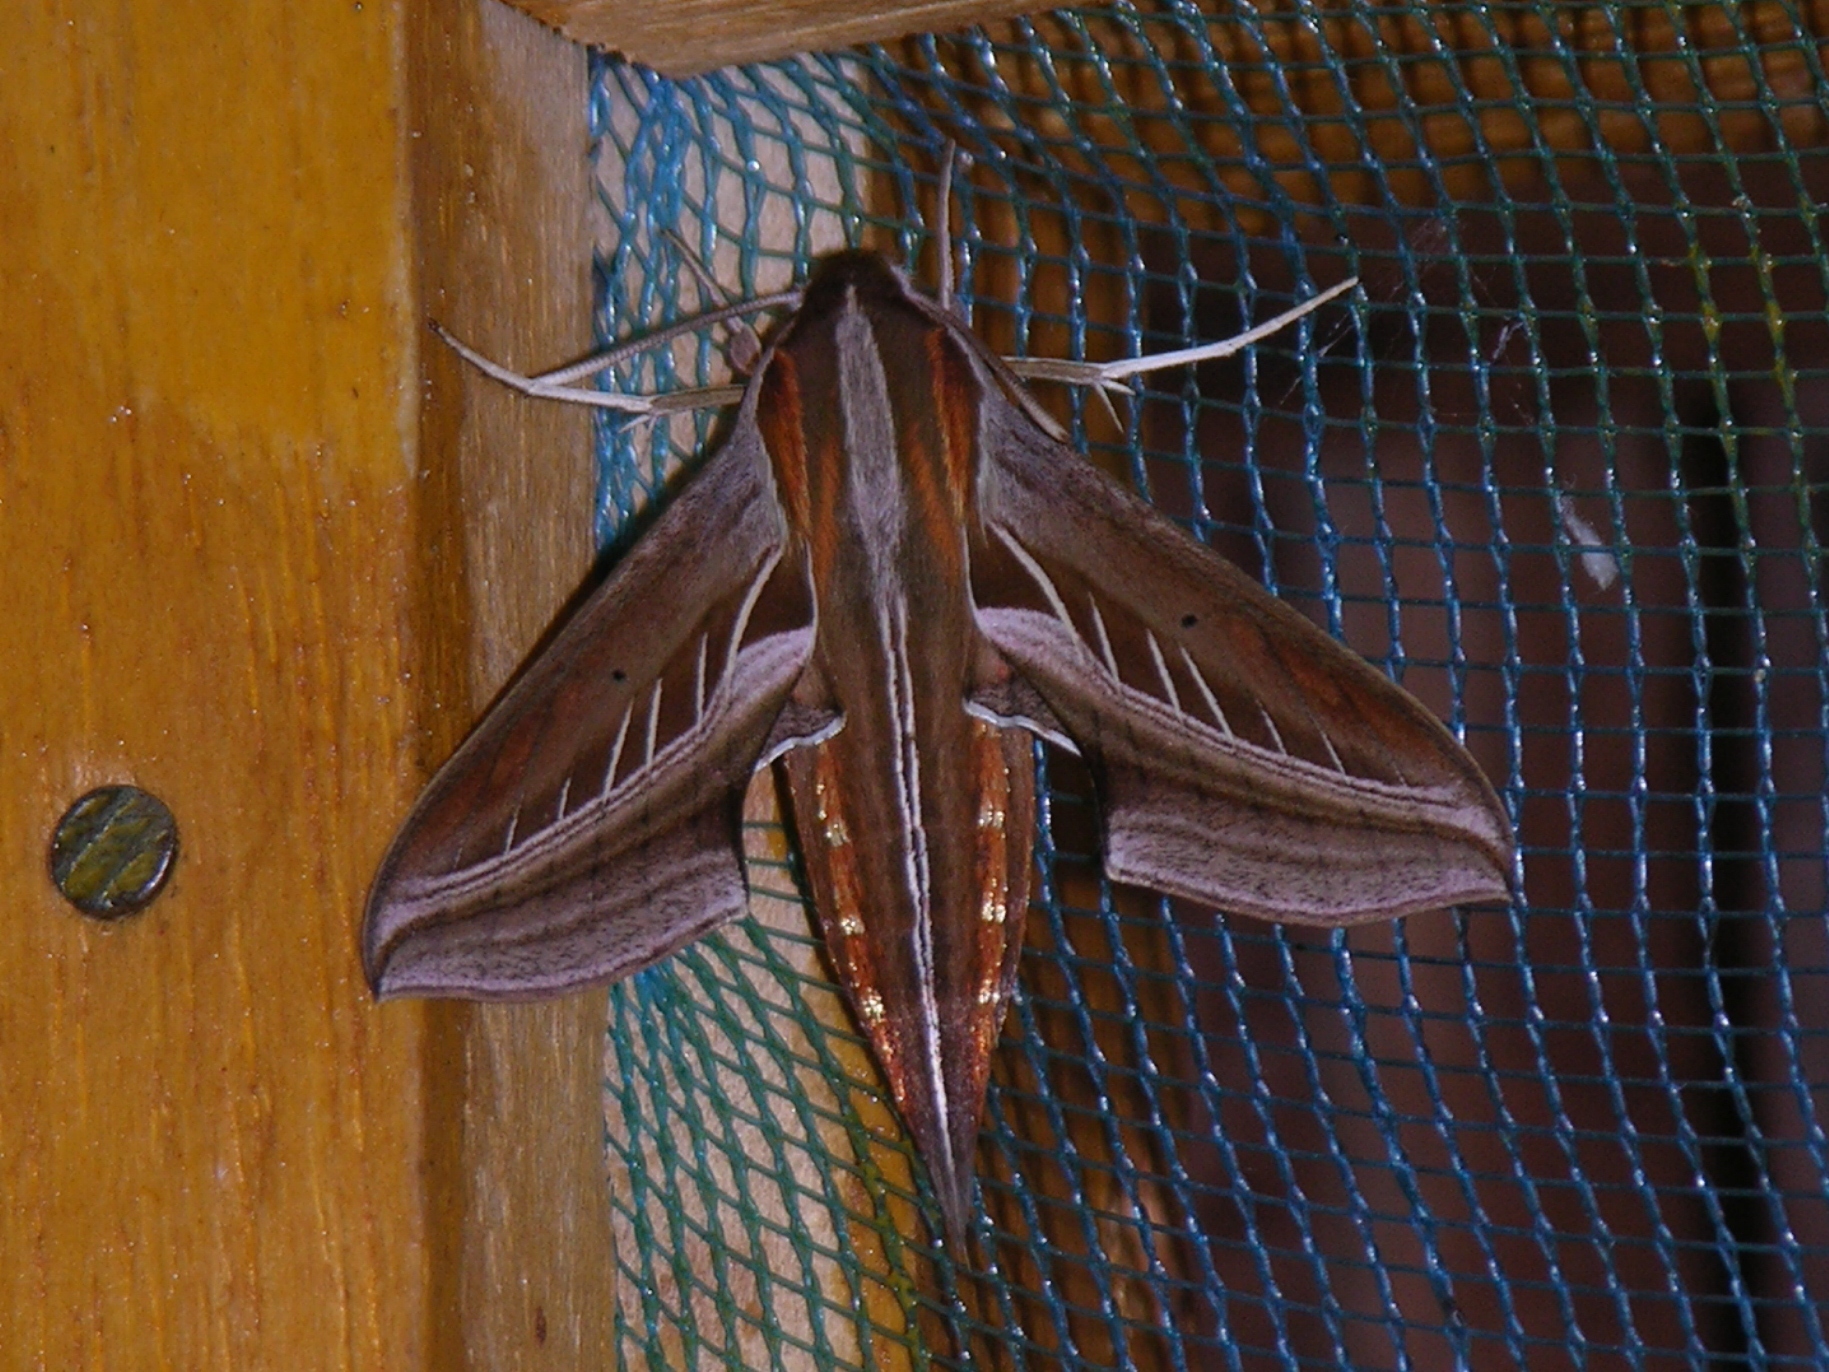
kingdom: Animalia
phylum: Arthropoda
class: Insecta
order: Lepidoptera
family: Sphingidae
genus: Basiothia
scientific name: Basiothia charis
